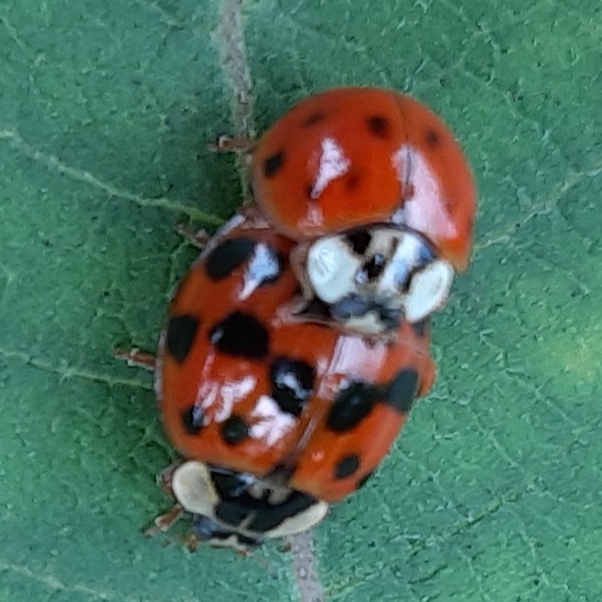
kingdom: Animalia
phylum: Arthropoda
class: Insecta
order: Coleoptera
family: Coccinellidae
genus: Harmonia
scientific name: Harmonia axyridis
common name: Harlequin ladybird
